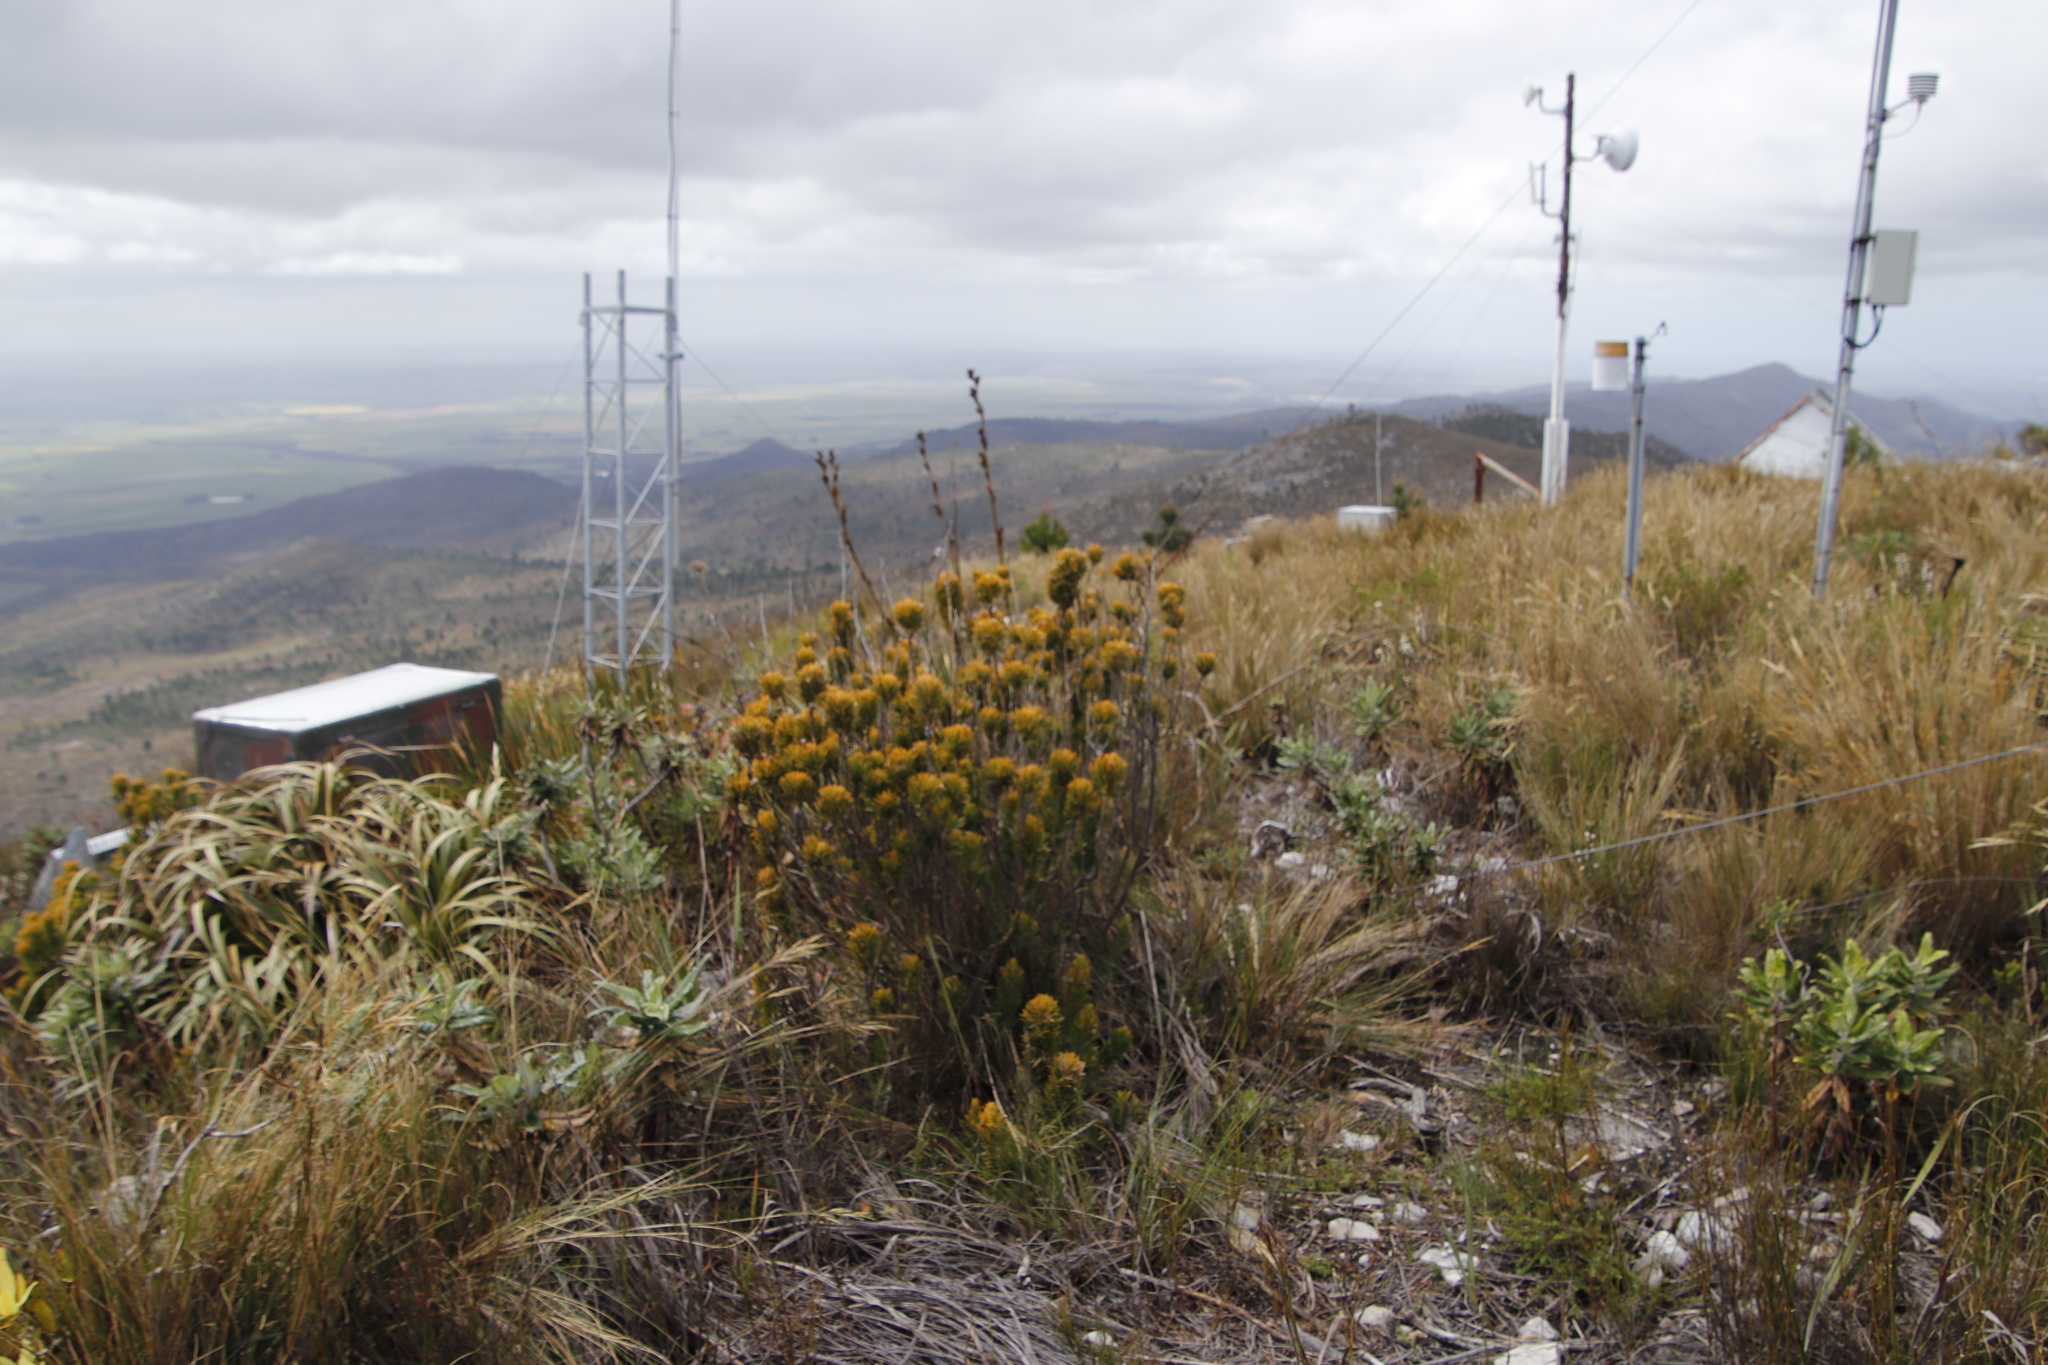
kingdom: Plantae
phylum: Tracheophyta
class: Magnoliopsida
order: Lamiales
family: Stilbaceae
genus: Retzia
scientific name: Retzia capensis
